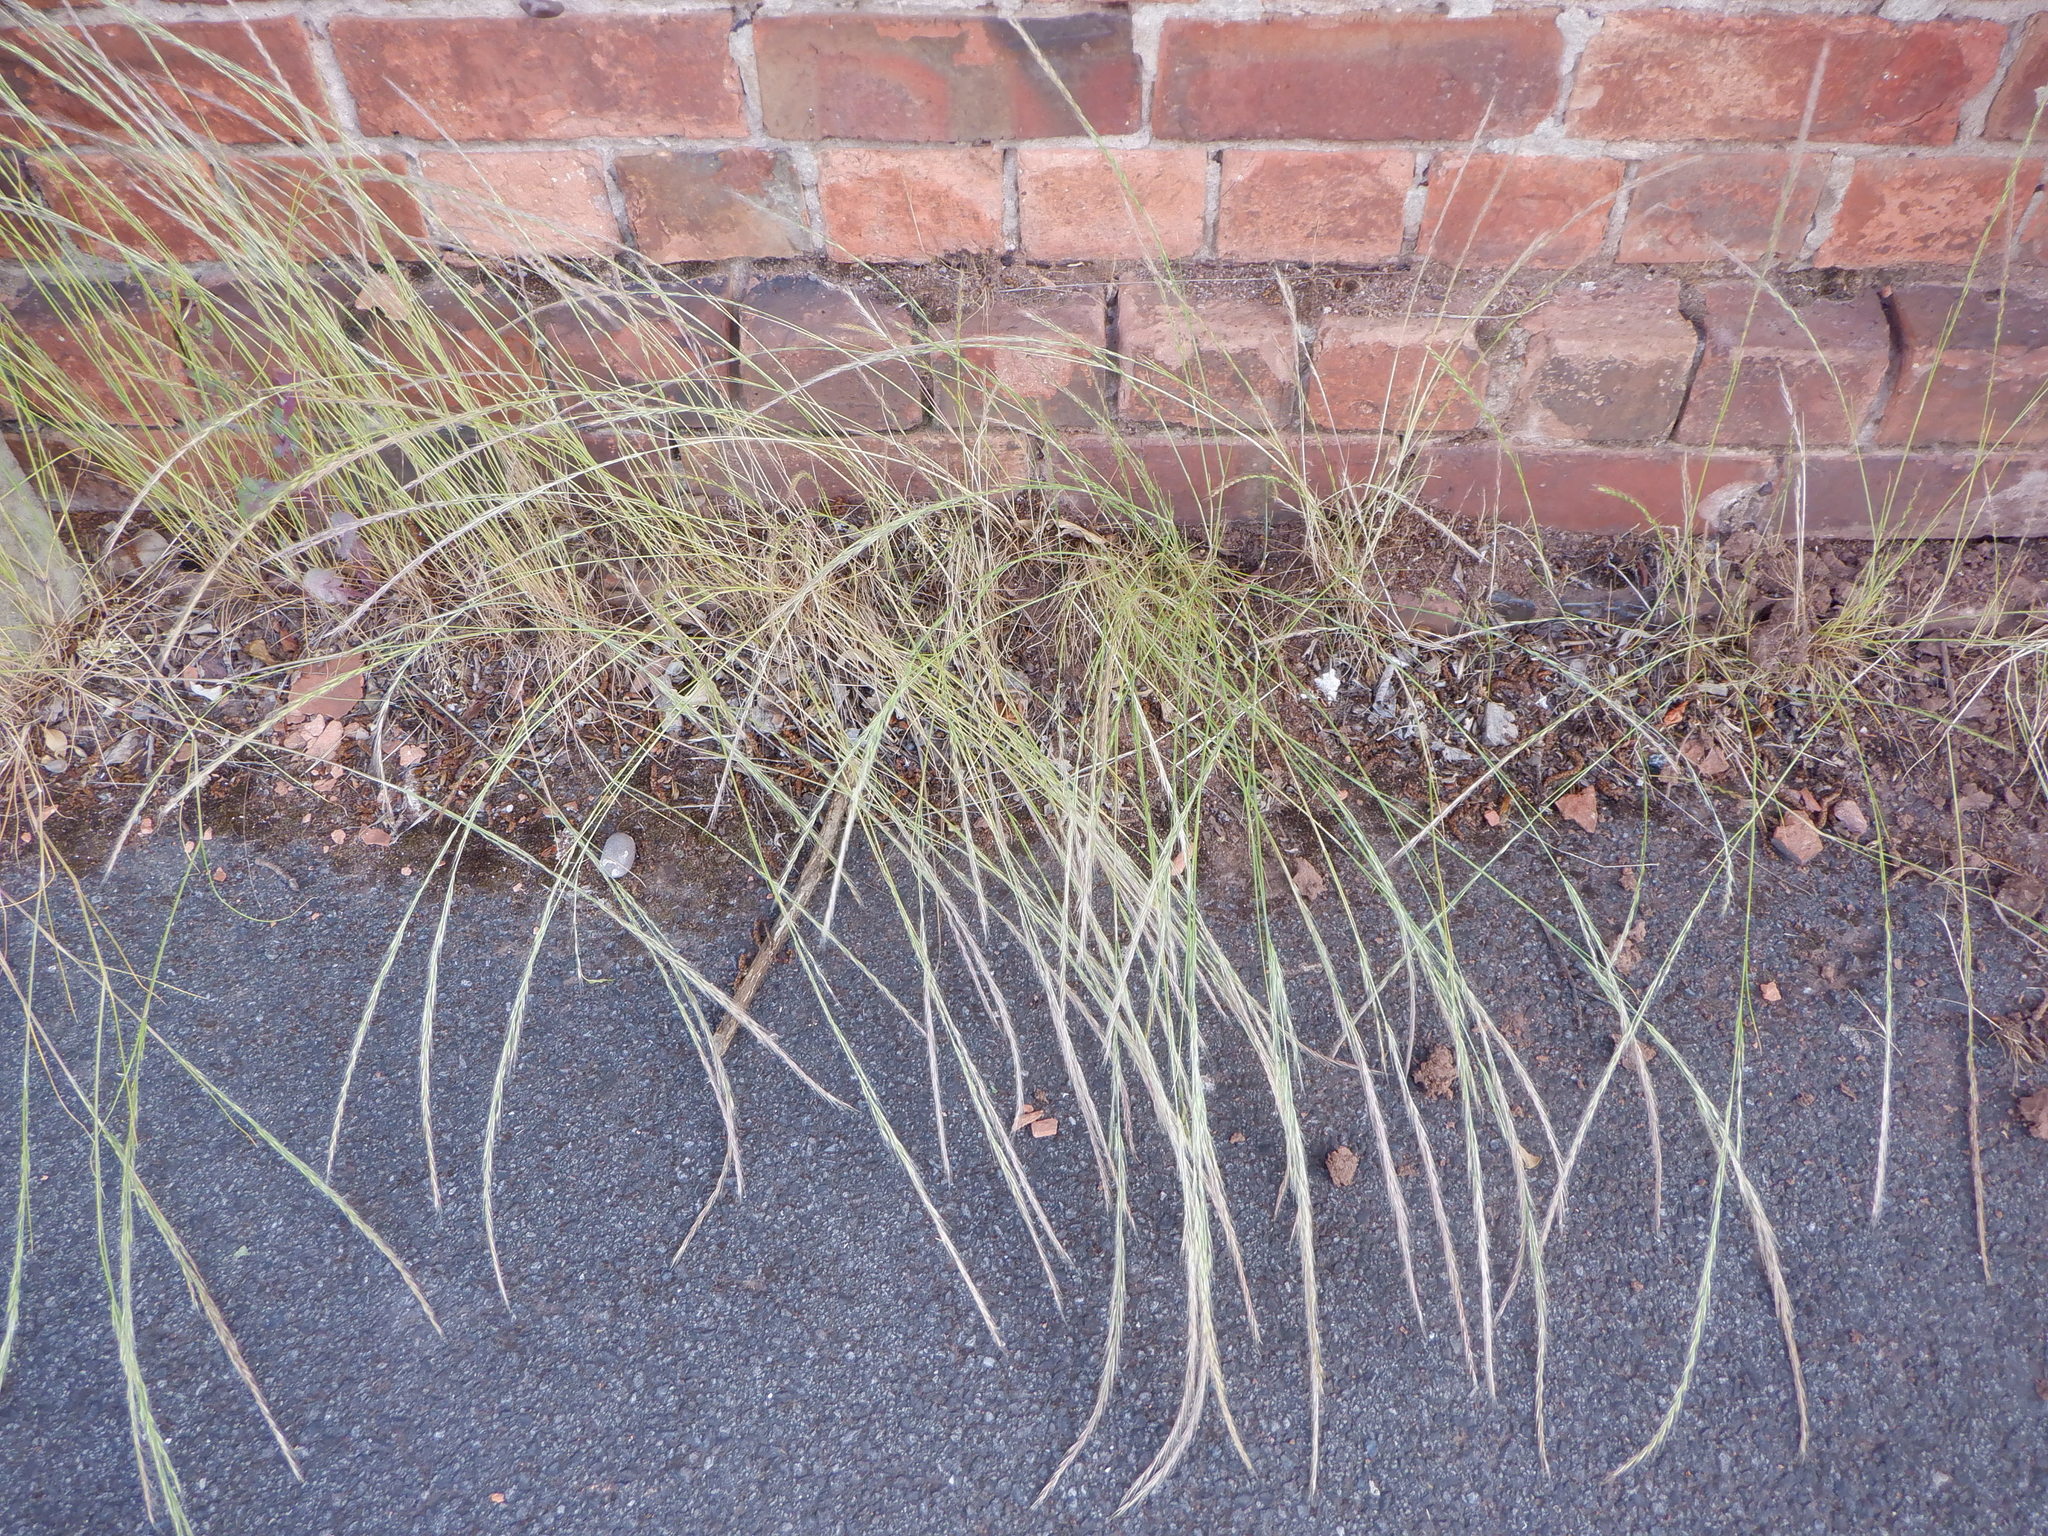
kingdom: Plantae
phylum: Tracheophyta
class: Liliopsida
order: Poales
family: Poaceae
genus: Festuca
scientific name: Festuca myuros
